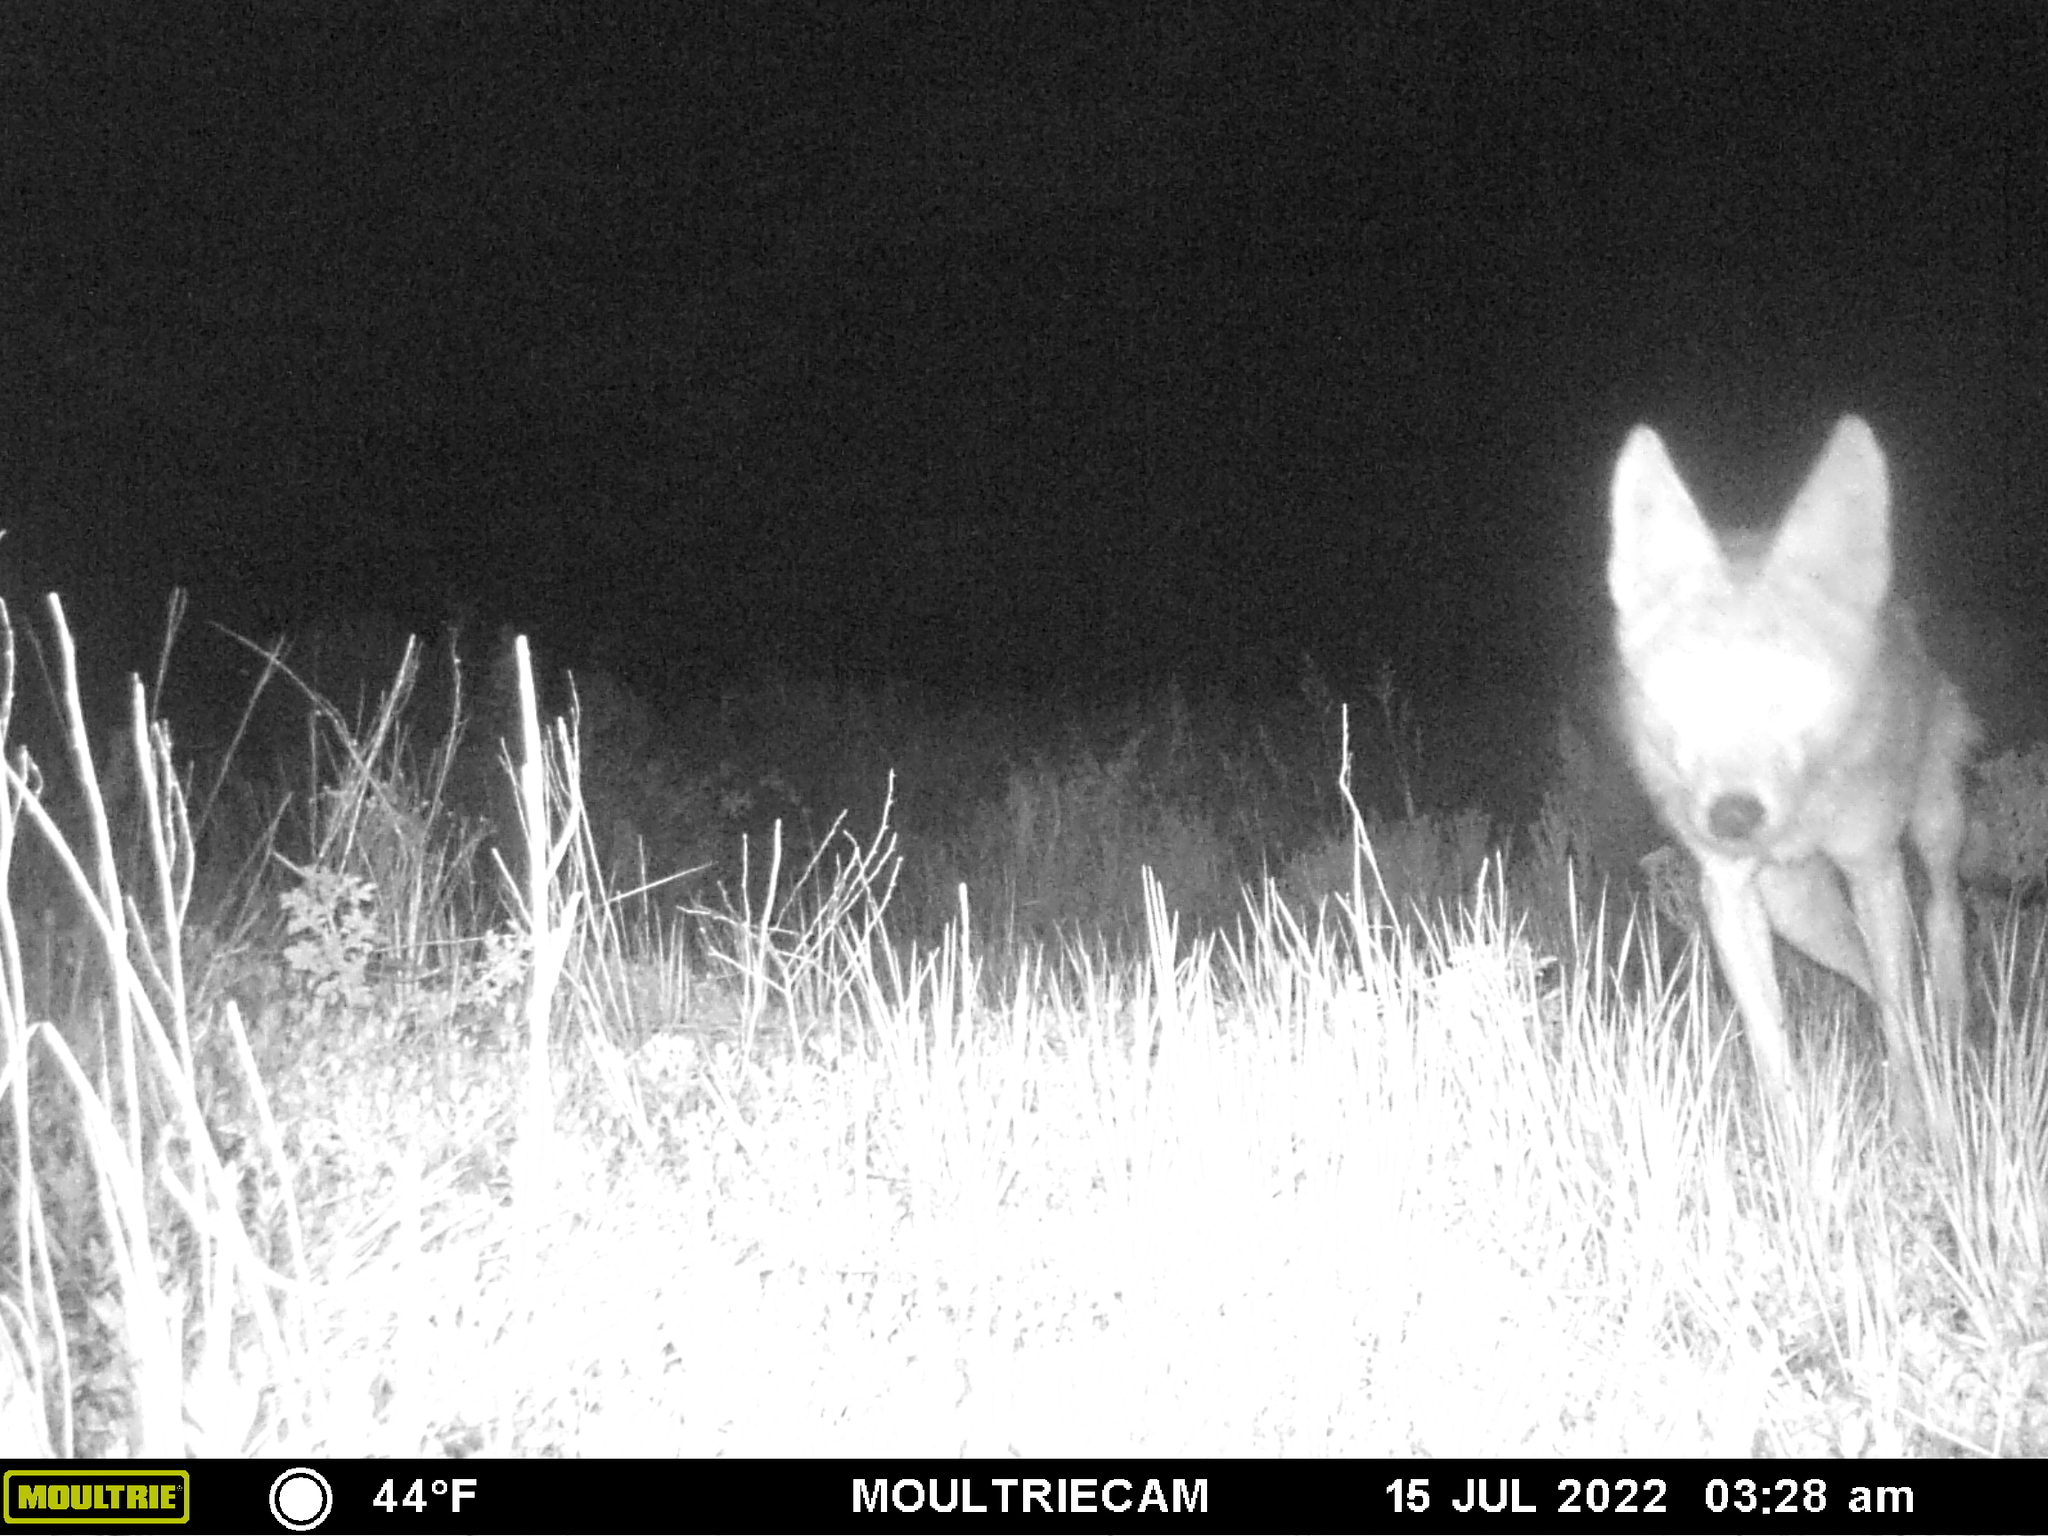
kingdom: Animalia
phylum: Chordata
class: Mammalia
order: Carnivora
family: Canidae
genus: Canis
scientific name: Canis latrans
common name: Coyote
